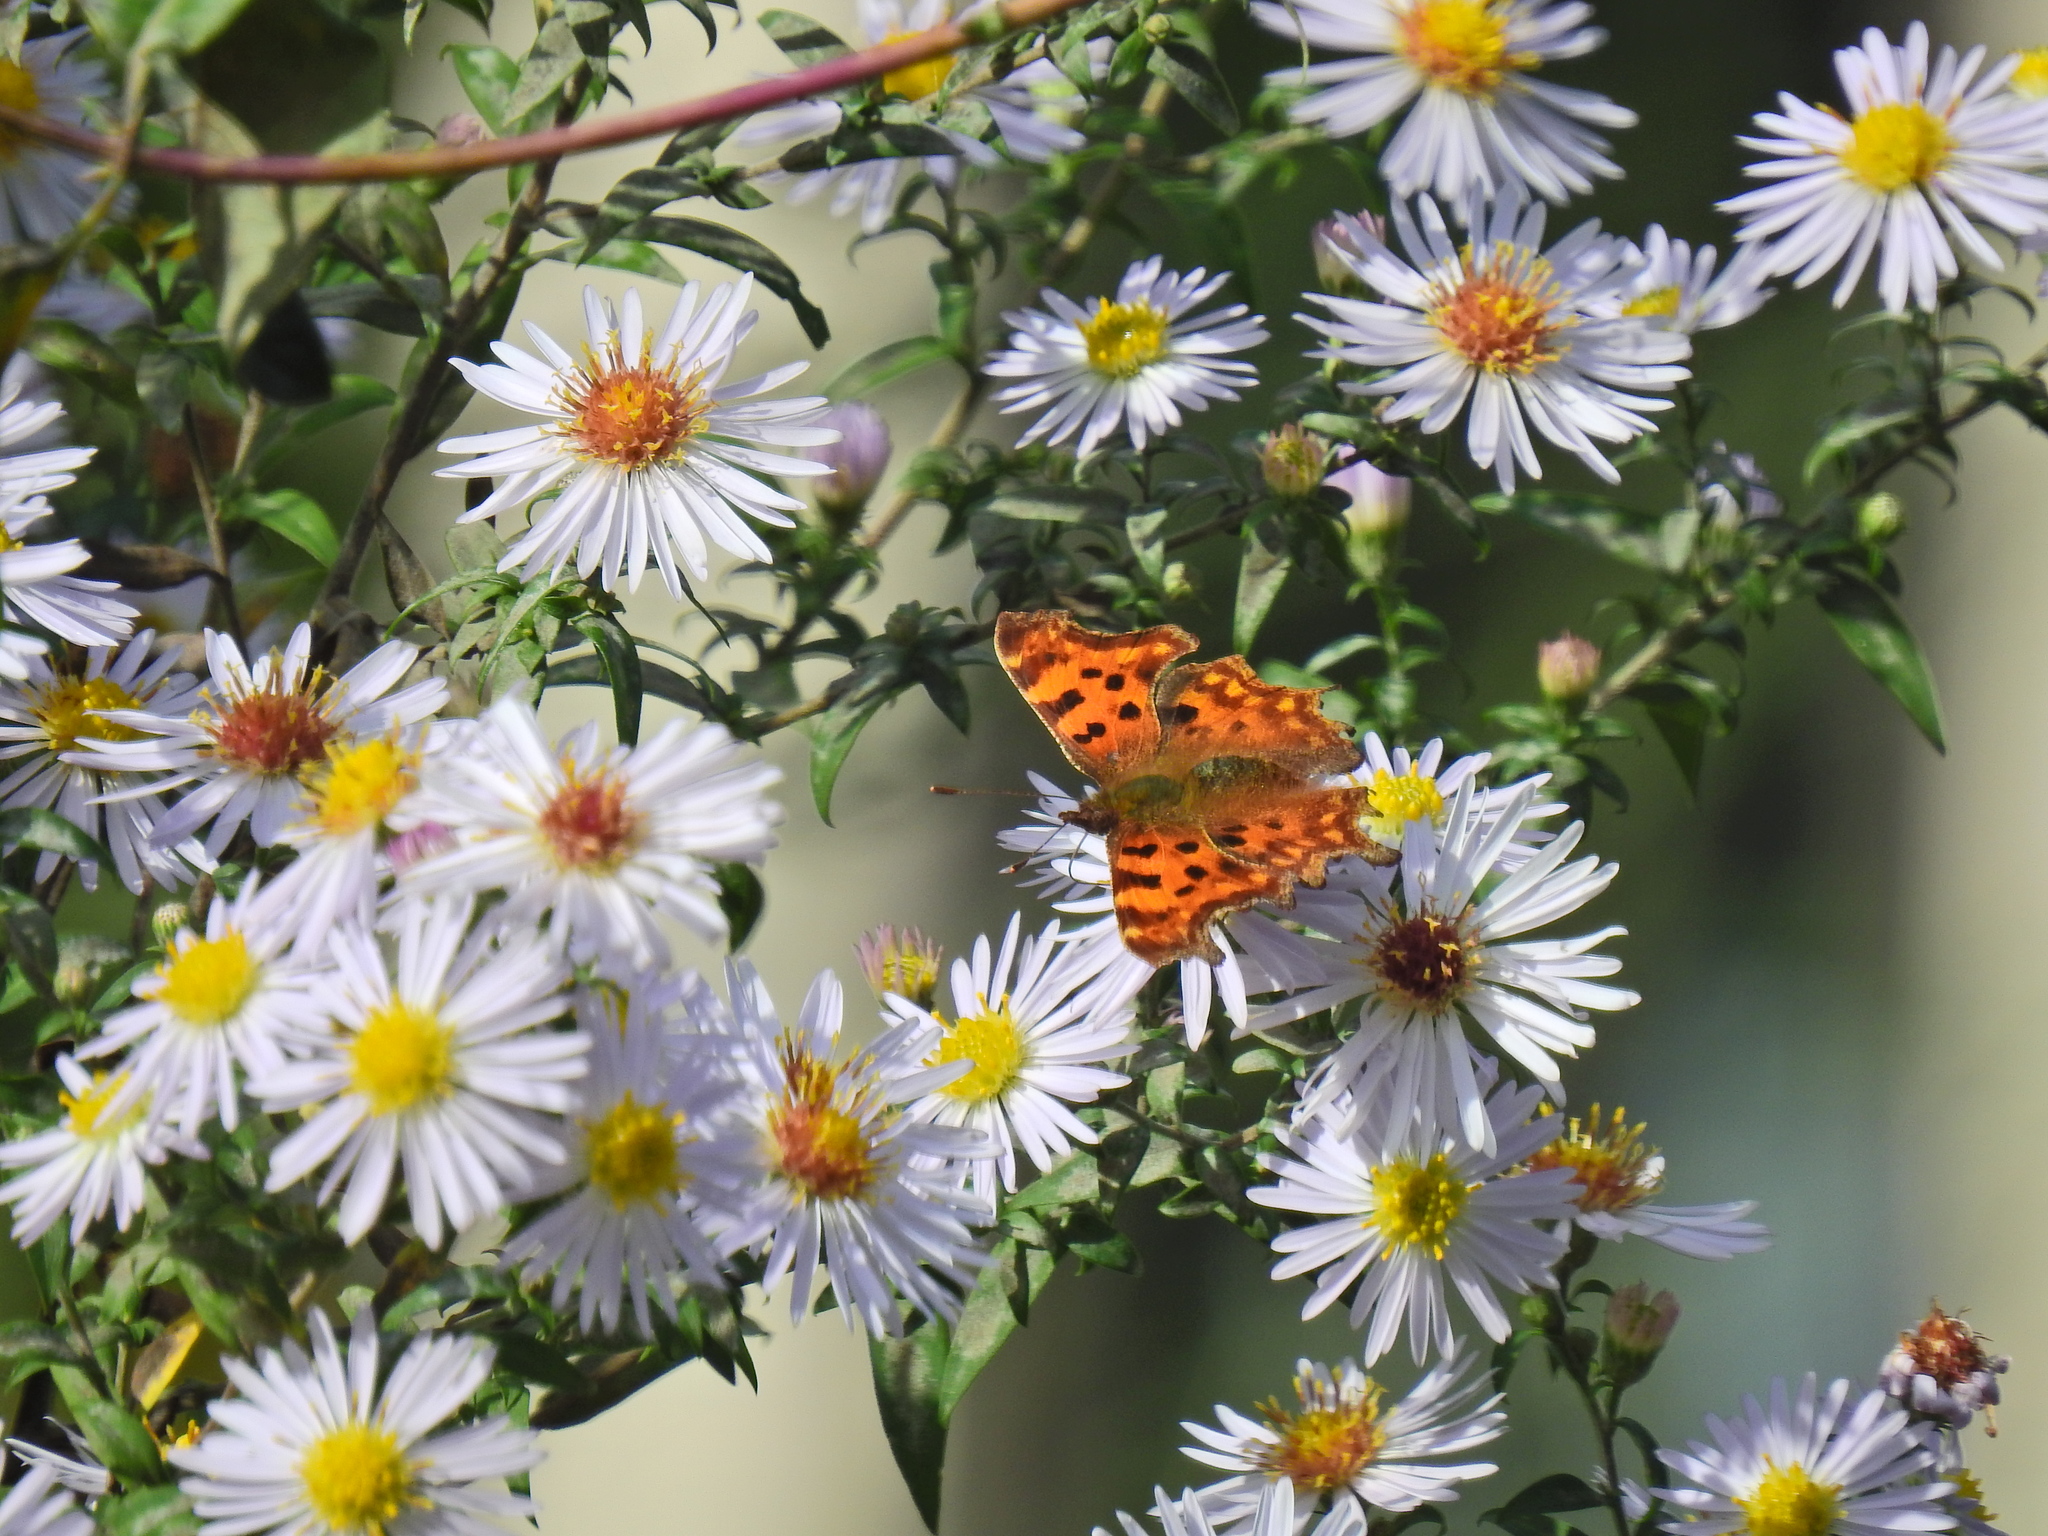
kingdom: Animalia
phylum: Arthropoda
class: Insecta
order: Lepidoptera
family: Nymphalidae
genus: Polygonia
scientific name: Polygonia c-album
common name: Comma
